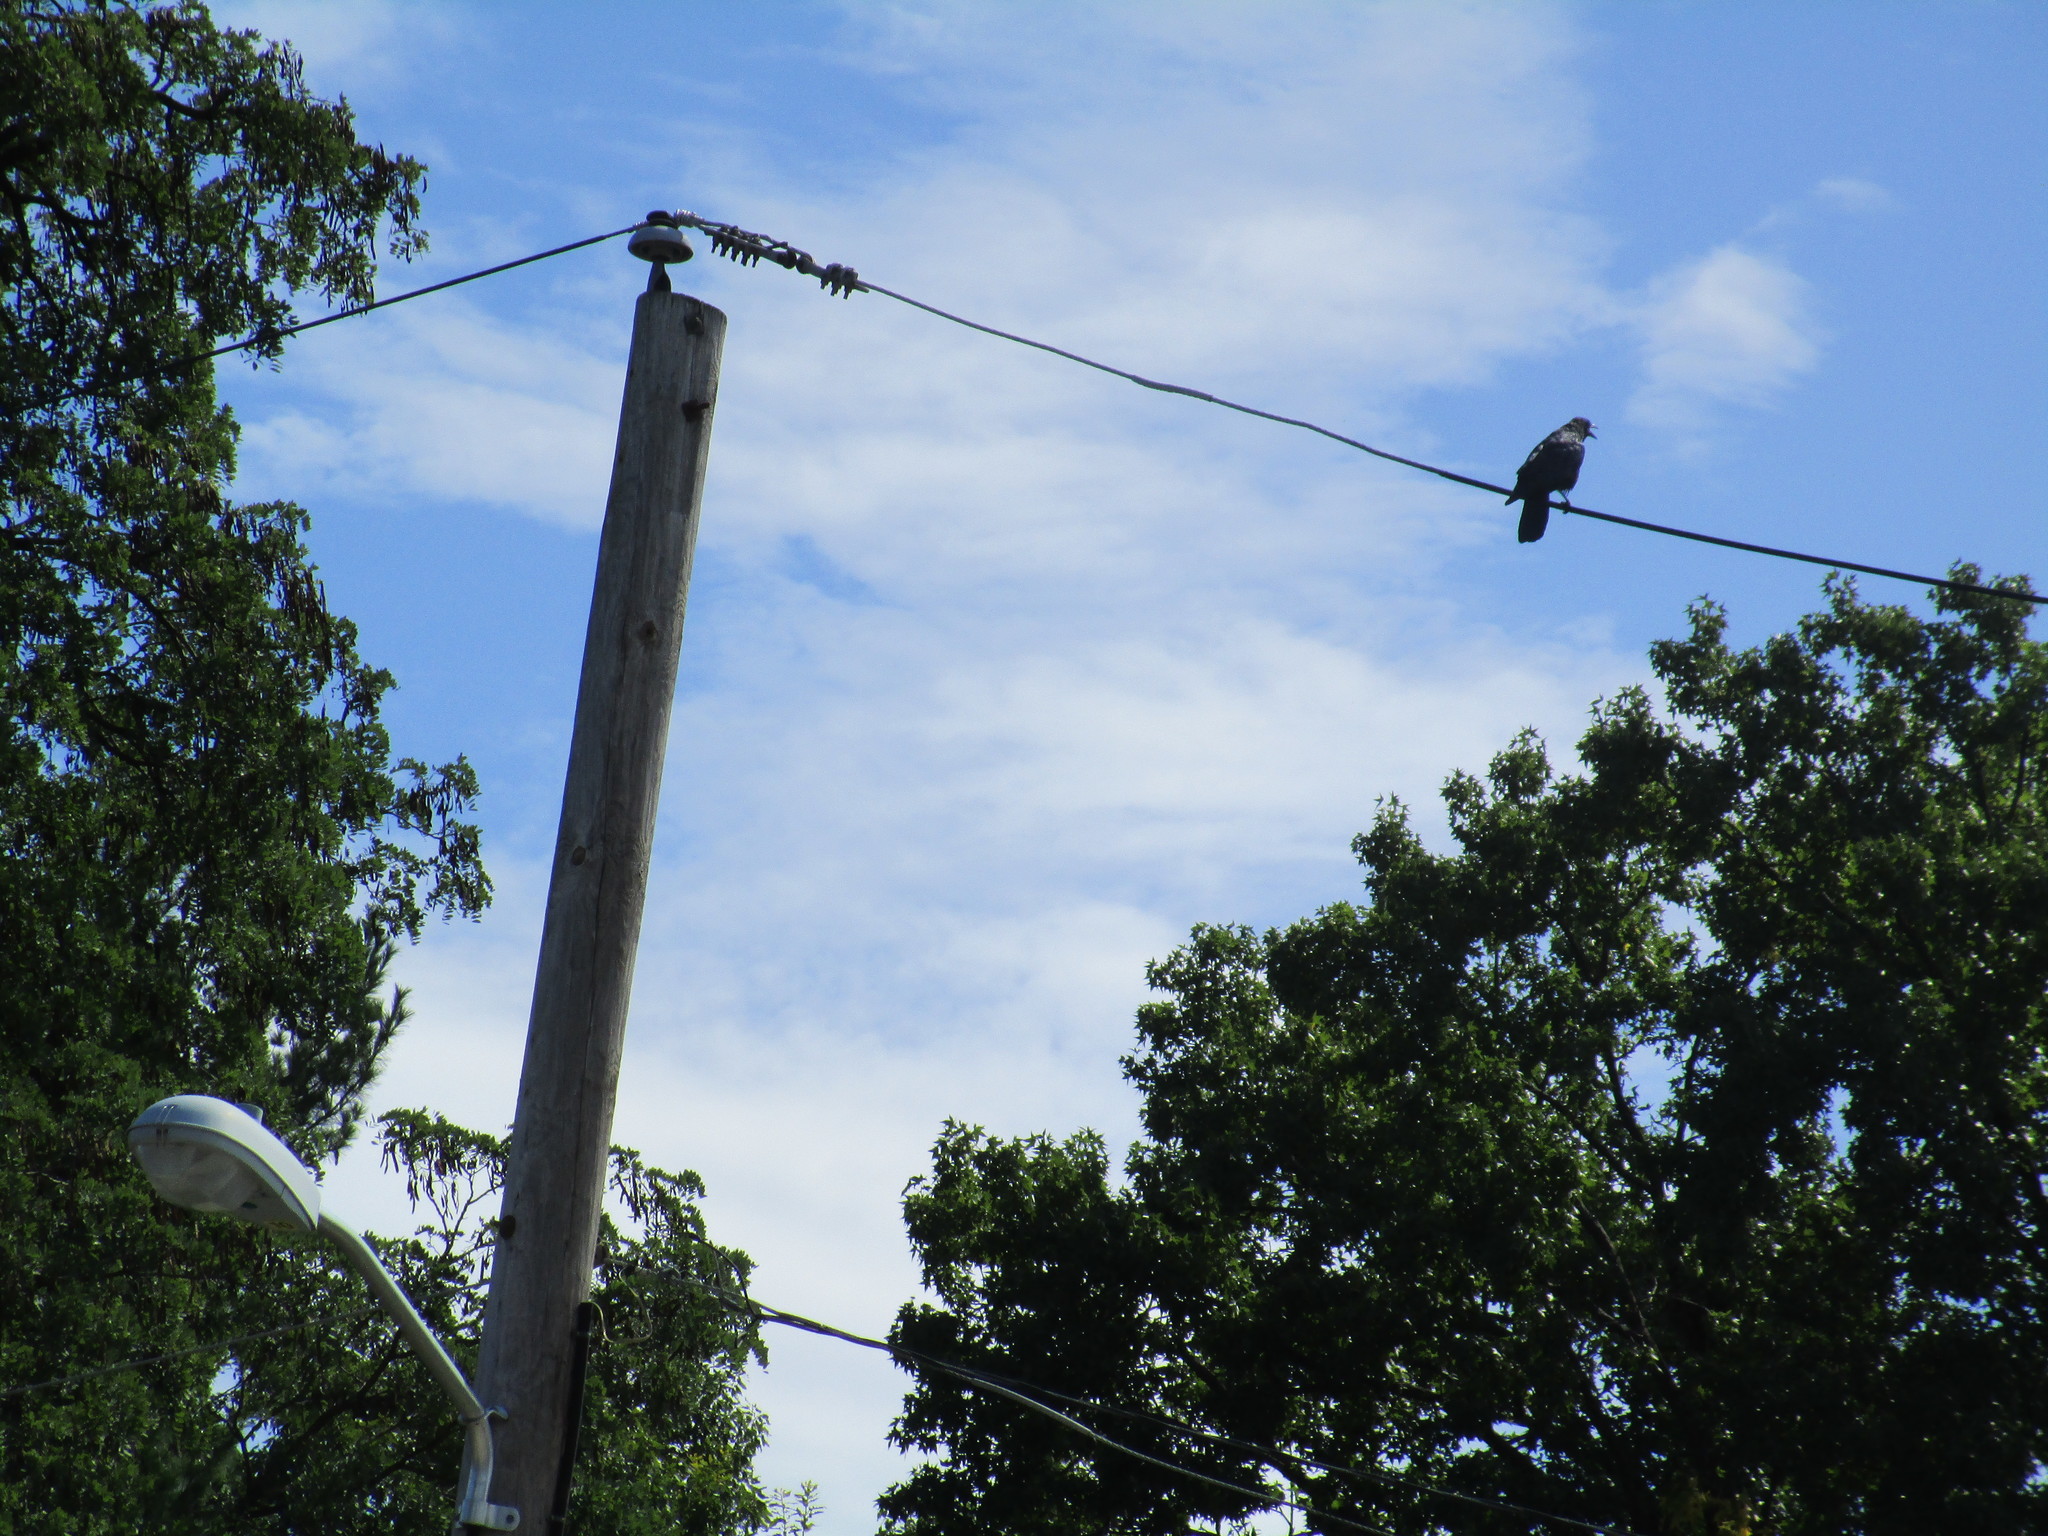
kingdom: Animalia
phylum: Chordata
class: Aves
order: Passeriformes
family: Corvidae
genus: Corvus
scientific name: Corvus brachyrhynchos
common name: American crow
